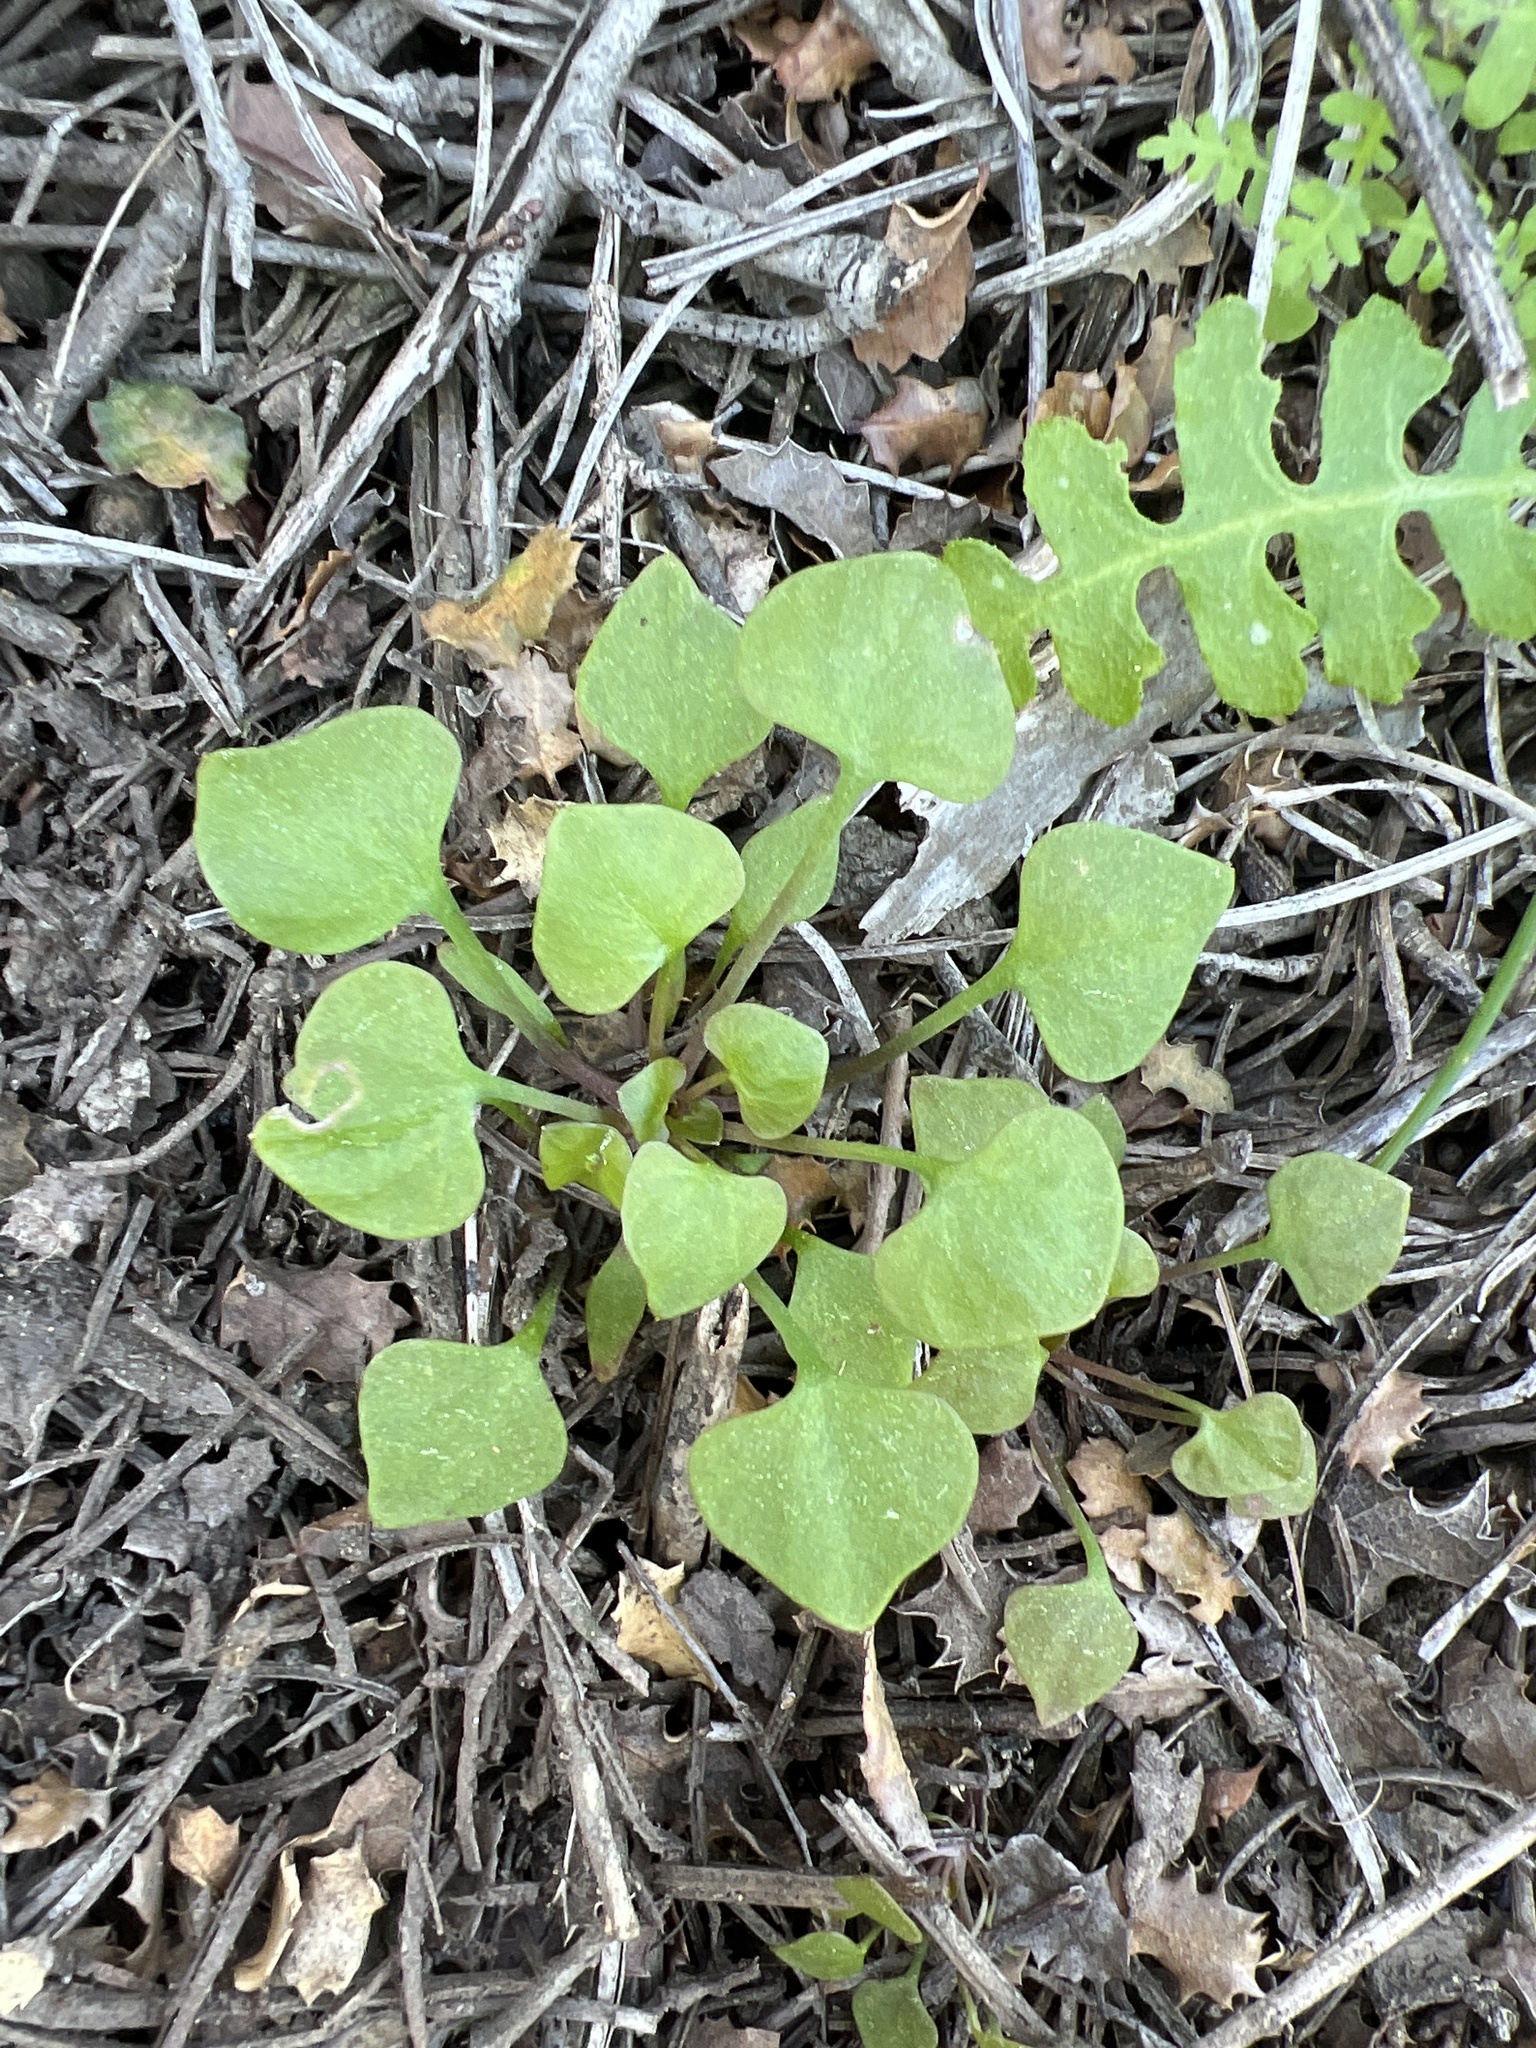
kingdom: Plantae
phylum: Tracheophyta
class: Magnoliopsida
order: Caryophyllales
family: Montiaceae
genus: Claytonia
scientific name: Claytonia perfoliata
